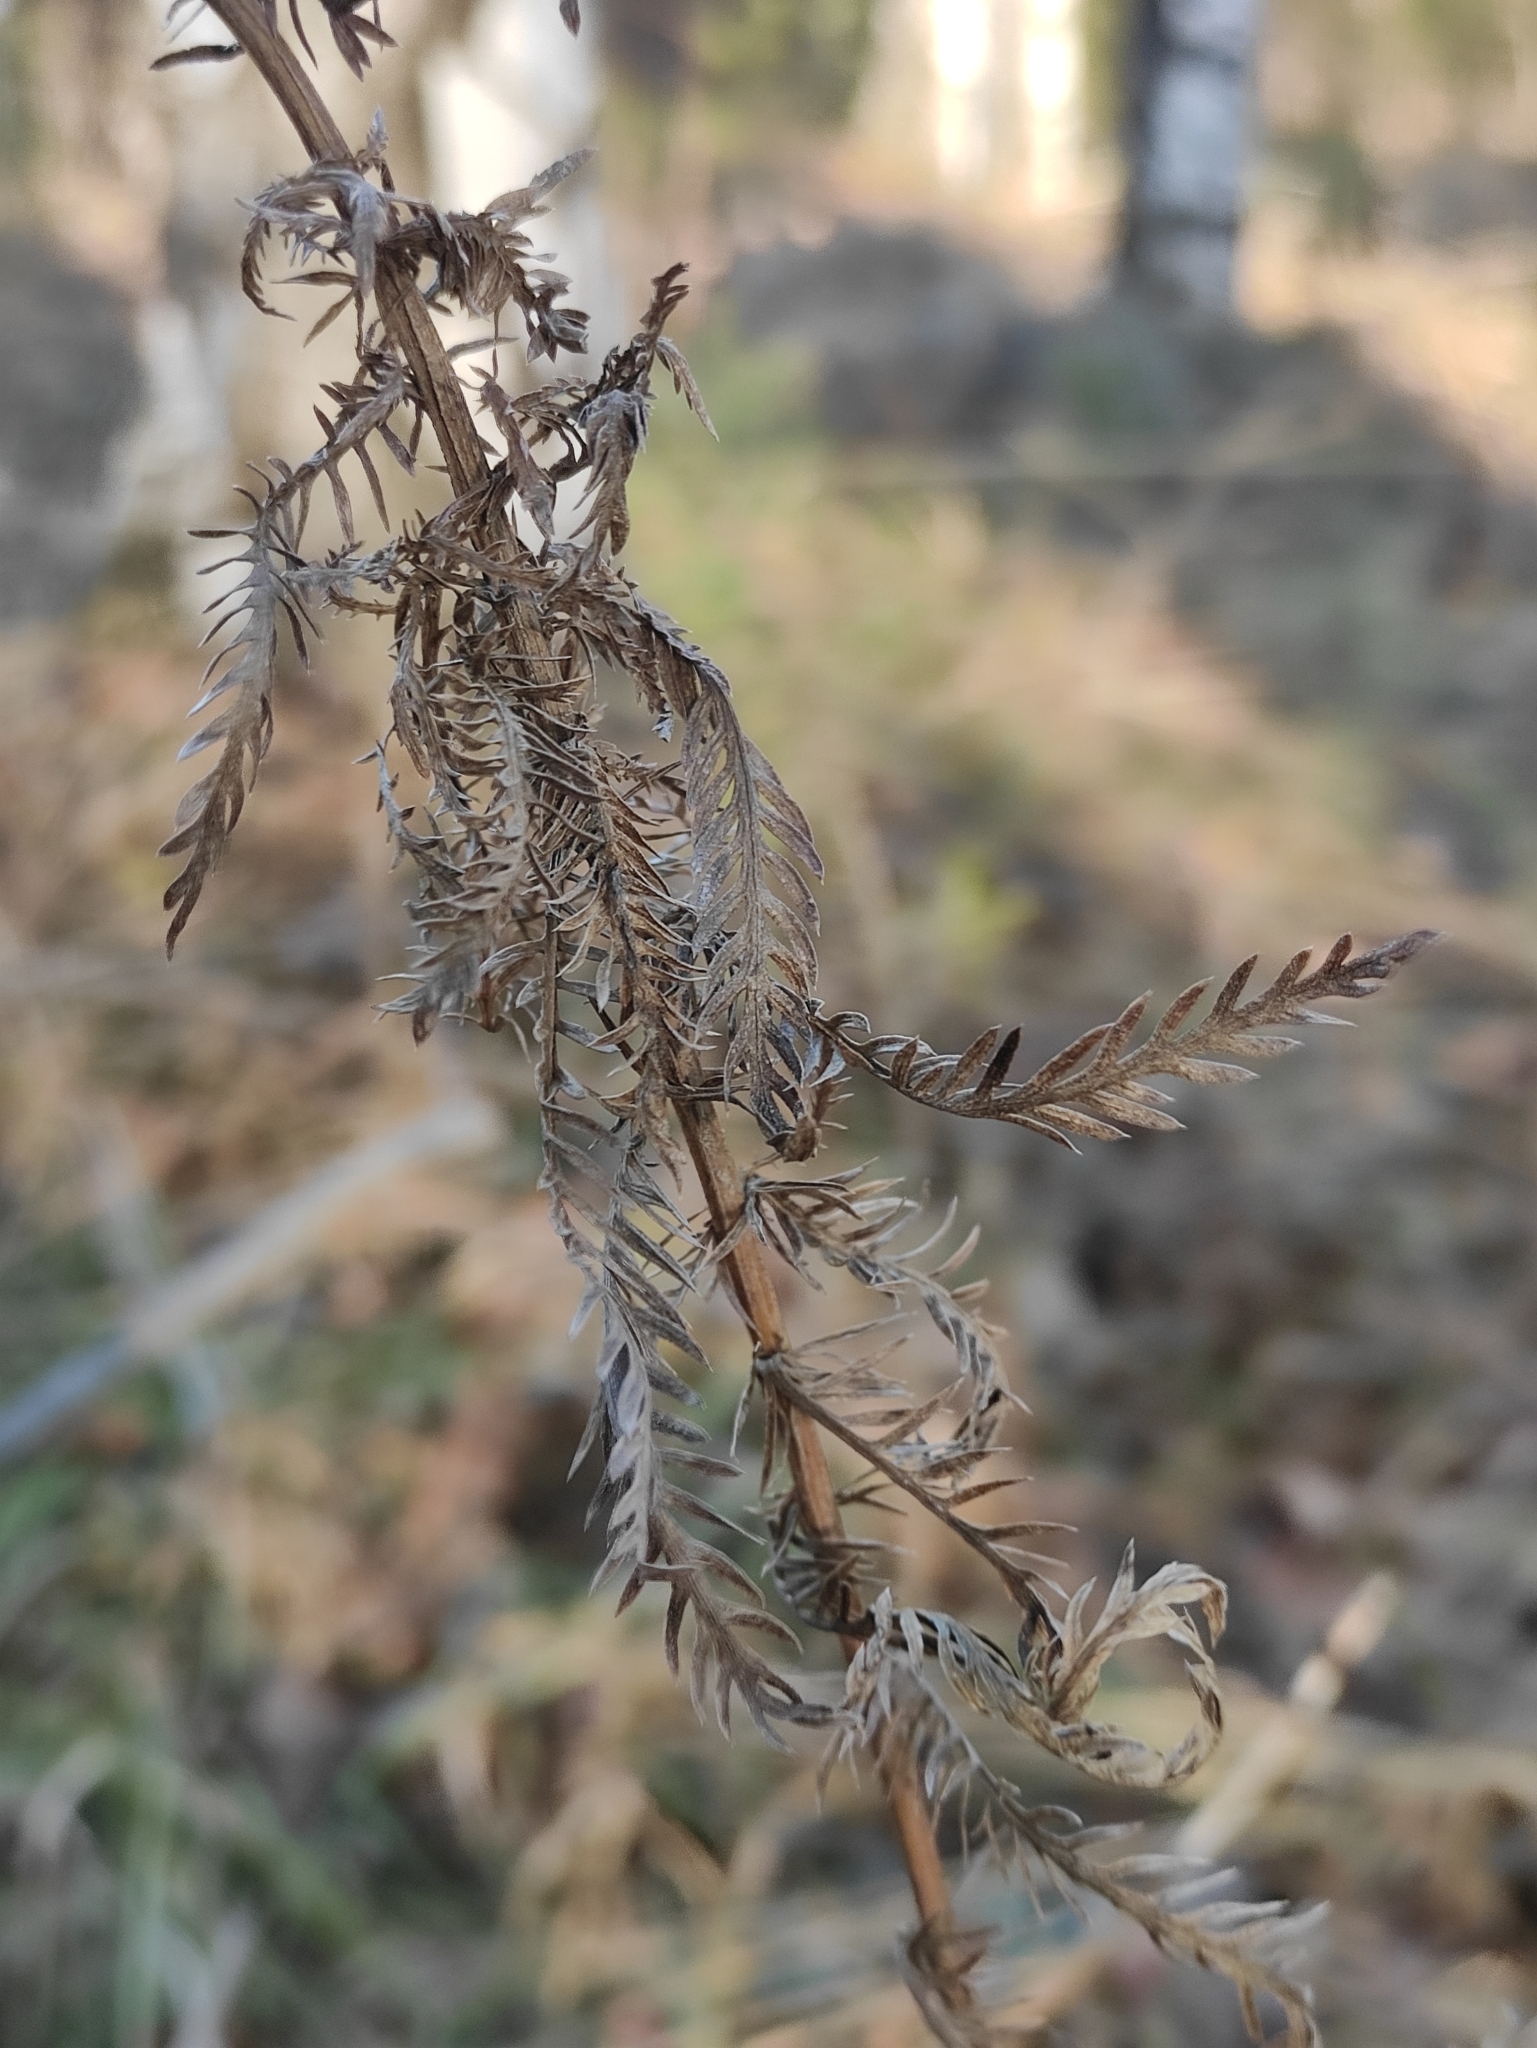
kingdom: Plantae
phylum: Tracheophyta
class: Magnoliopsida
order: Asterales
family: Asteraceae
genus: Achillea
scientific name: Achillea impatiens
